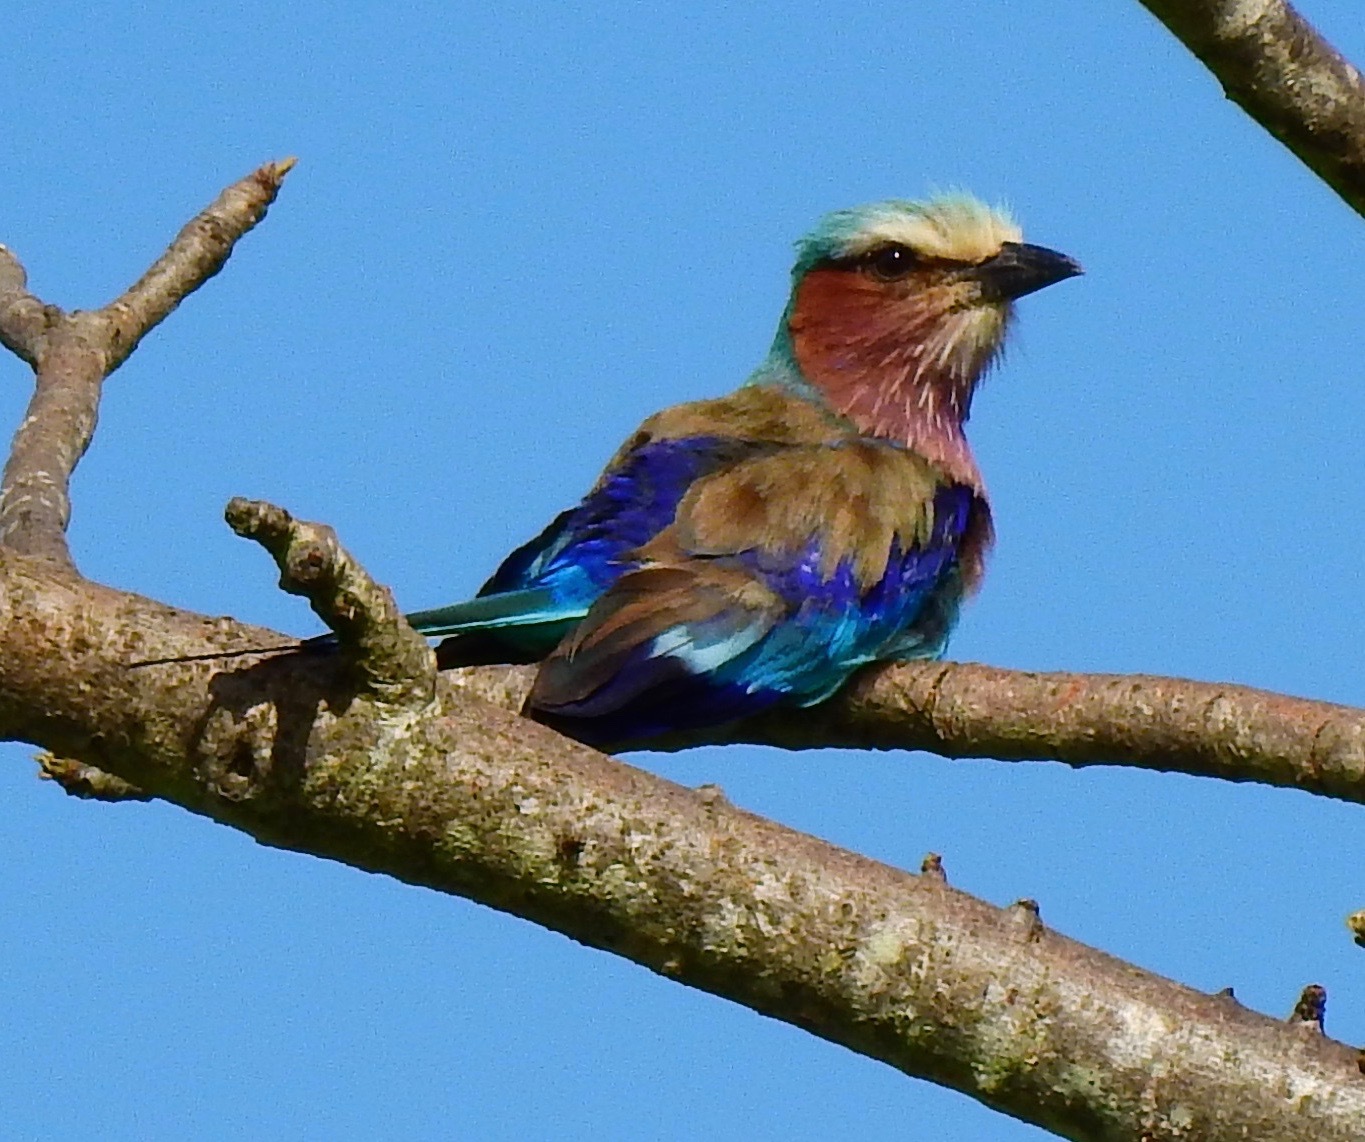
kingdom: Animalia
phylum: Chordata
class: Aves
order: Coraciiformes
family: Coraciidae
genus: Coracias
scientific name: Coracias caudatus
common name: Lilac-breasted roller
